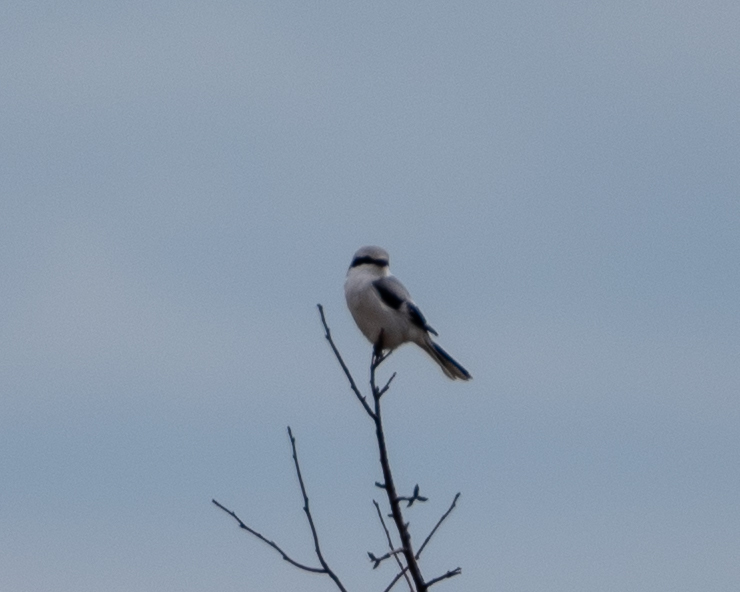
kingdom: Animalia
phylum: Chordata
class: Aves
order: Passeriformes
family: Laniidae
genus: Lanius
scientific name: Lanius excubitor
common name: Great grey shrike
